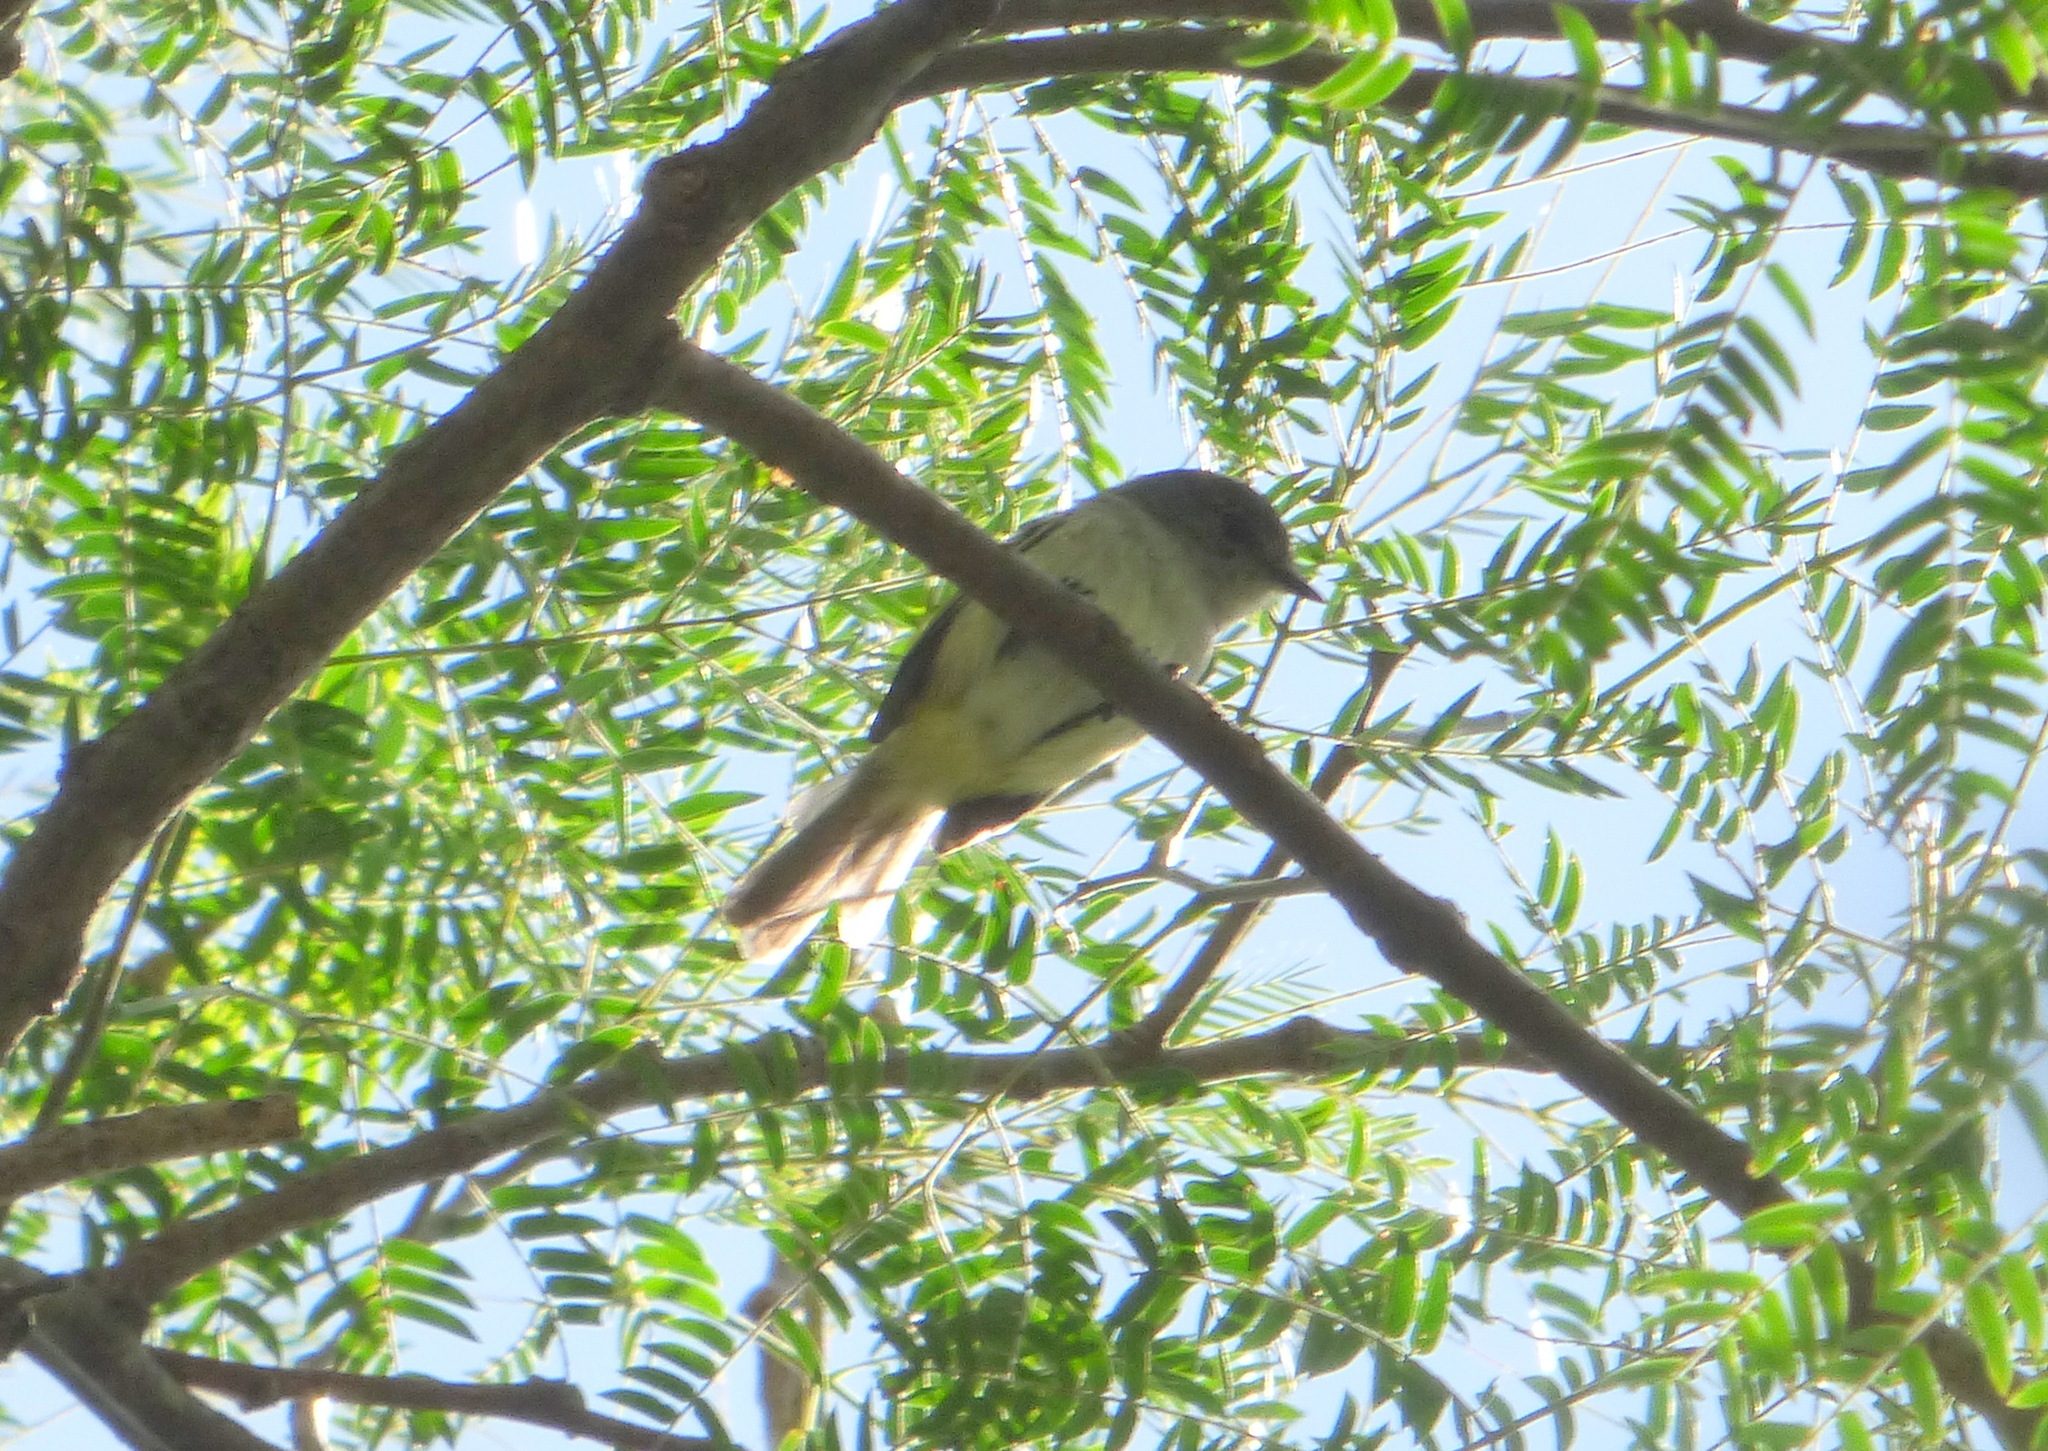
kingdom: Animalia
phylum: Chordata
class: Aves
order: Passeriformes
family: Tyrannidae
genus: Myiopagis
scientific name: Myiopagis caniceps
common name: Gray elaenia
